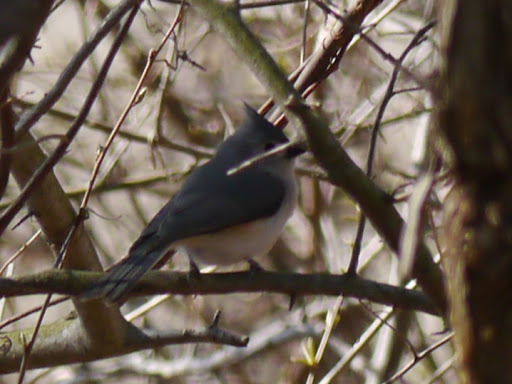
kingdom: Animalia
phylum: Chordata
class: Aves
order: Passeriformes
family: Paridae
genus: Baeolophus
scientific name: Baeolophus bicolor
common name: Tufted titmouse
